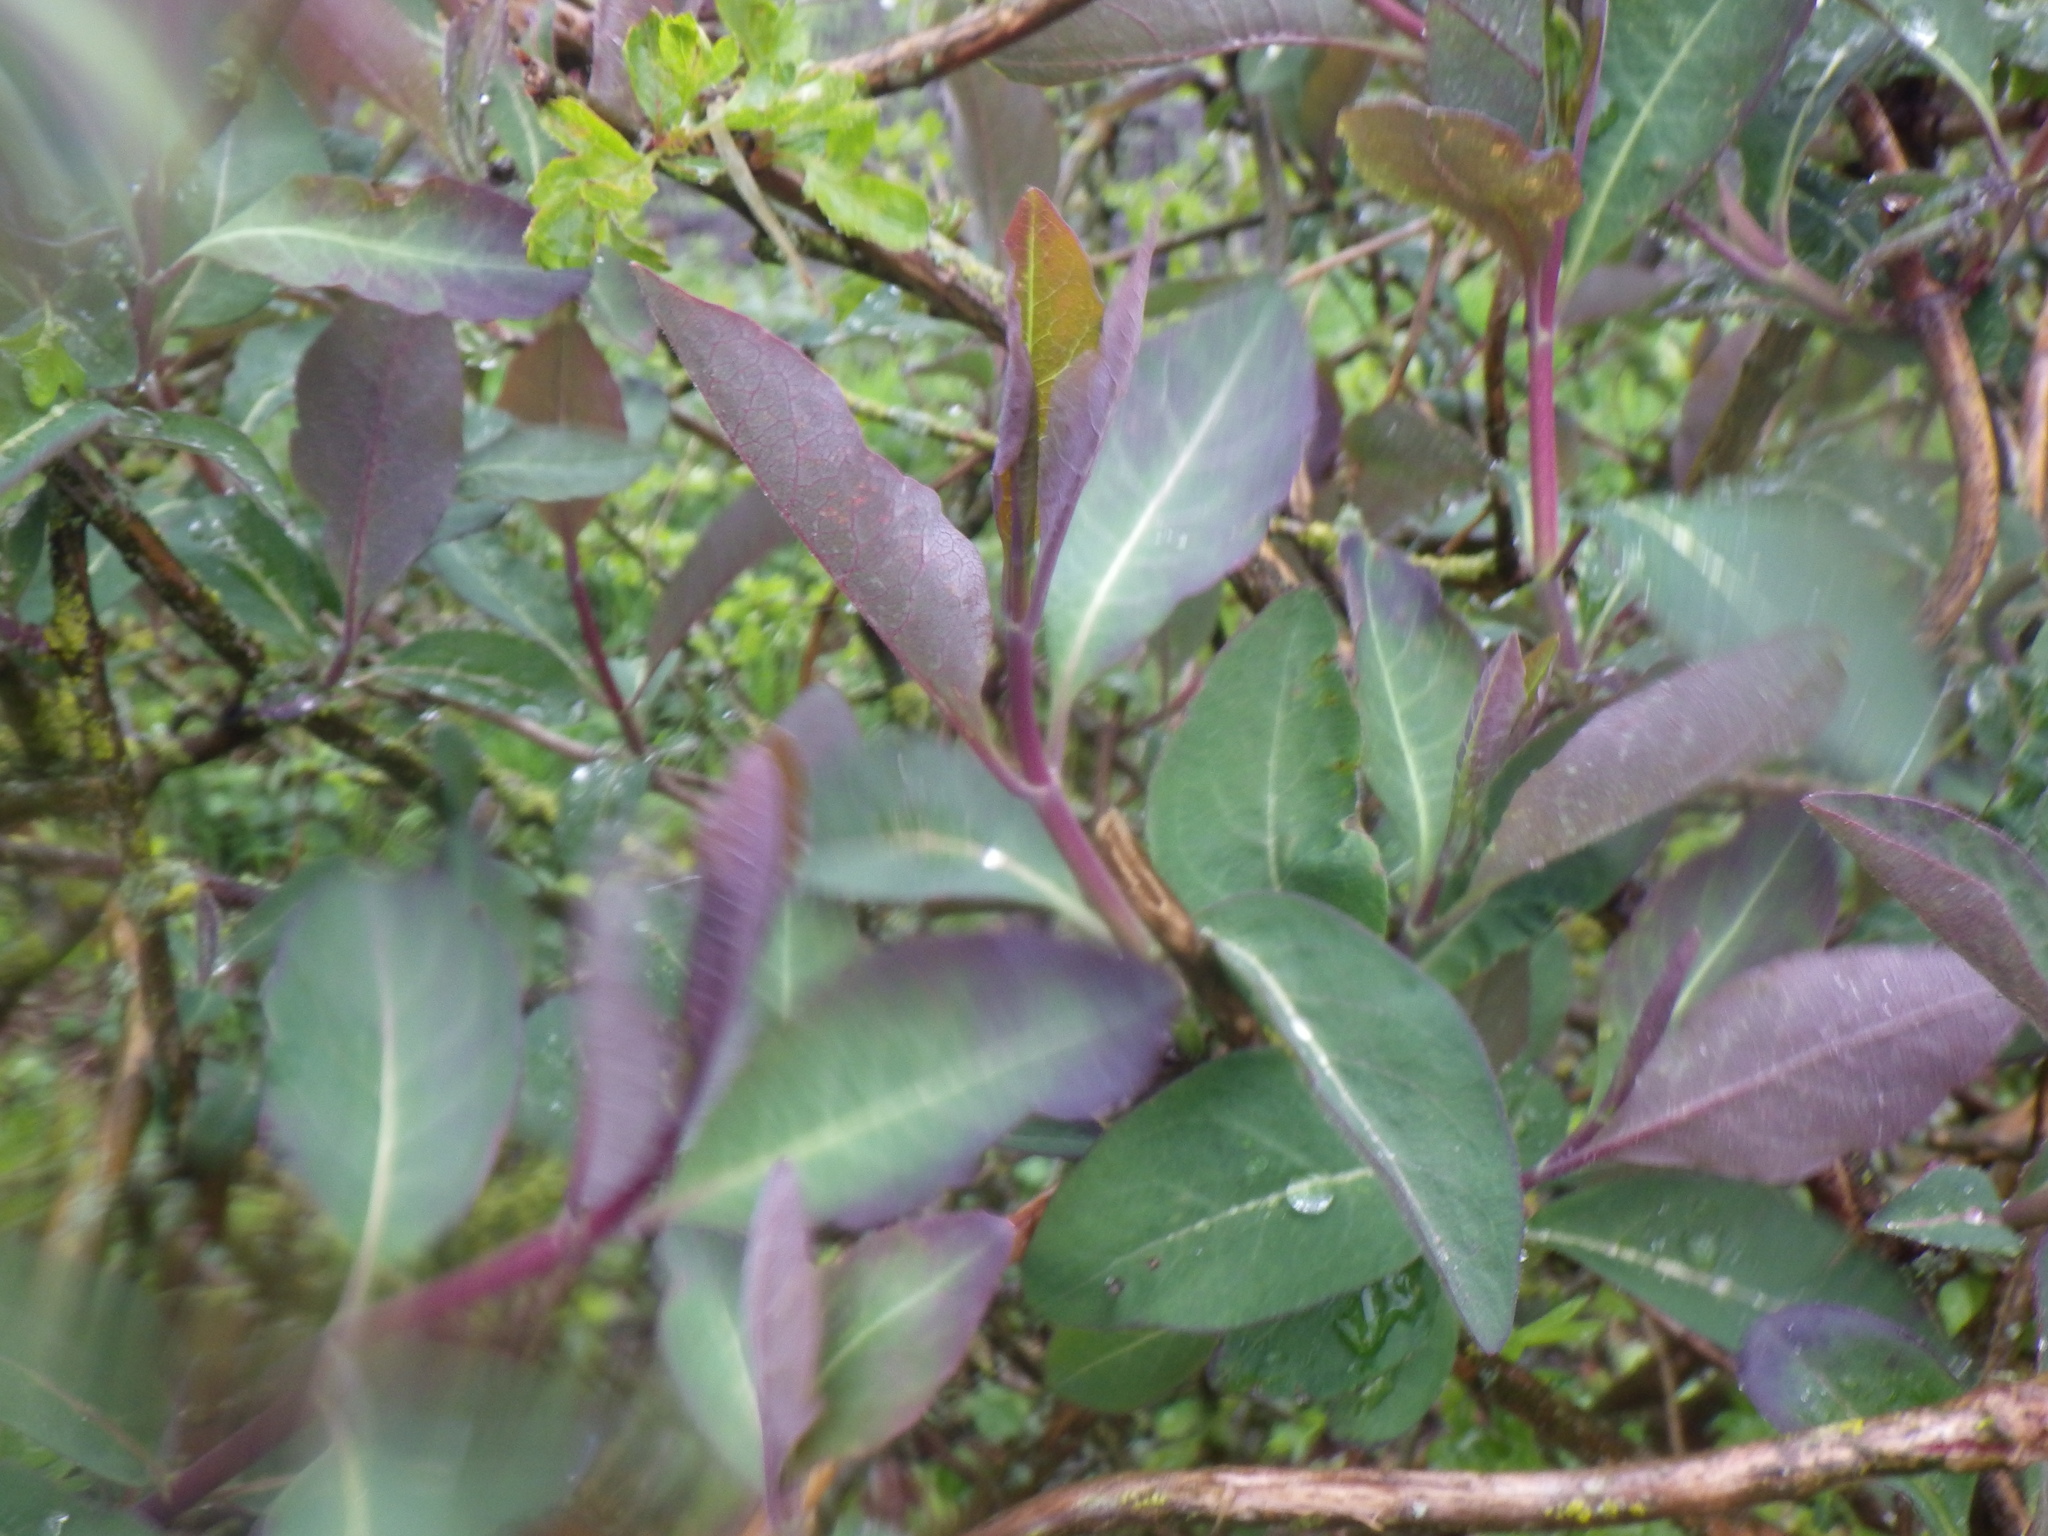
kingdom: Plantae
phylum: Tracheophyta
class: Magnoliopsida
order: Dipsacales
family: Caprifoliaceae
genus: Lonicera
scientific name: Lonicera periclymenum
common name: European honeysuckle
